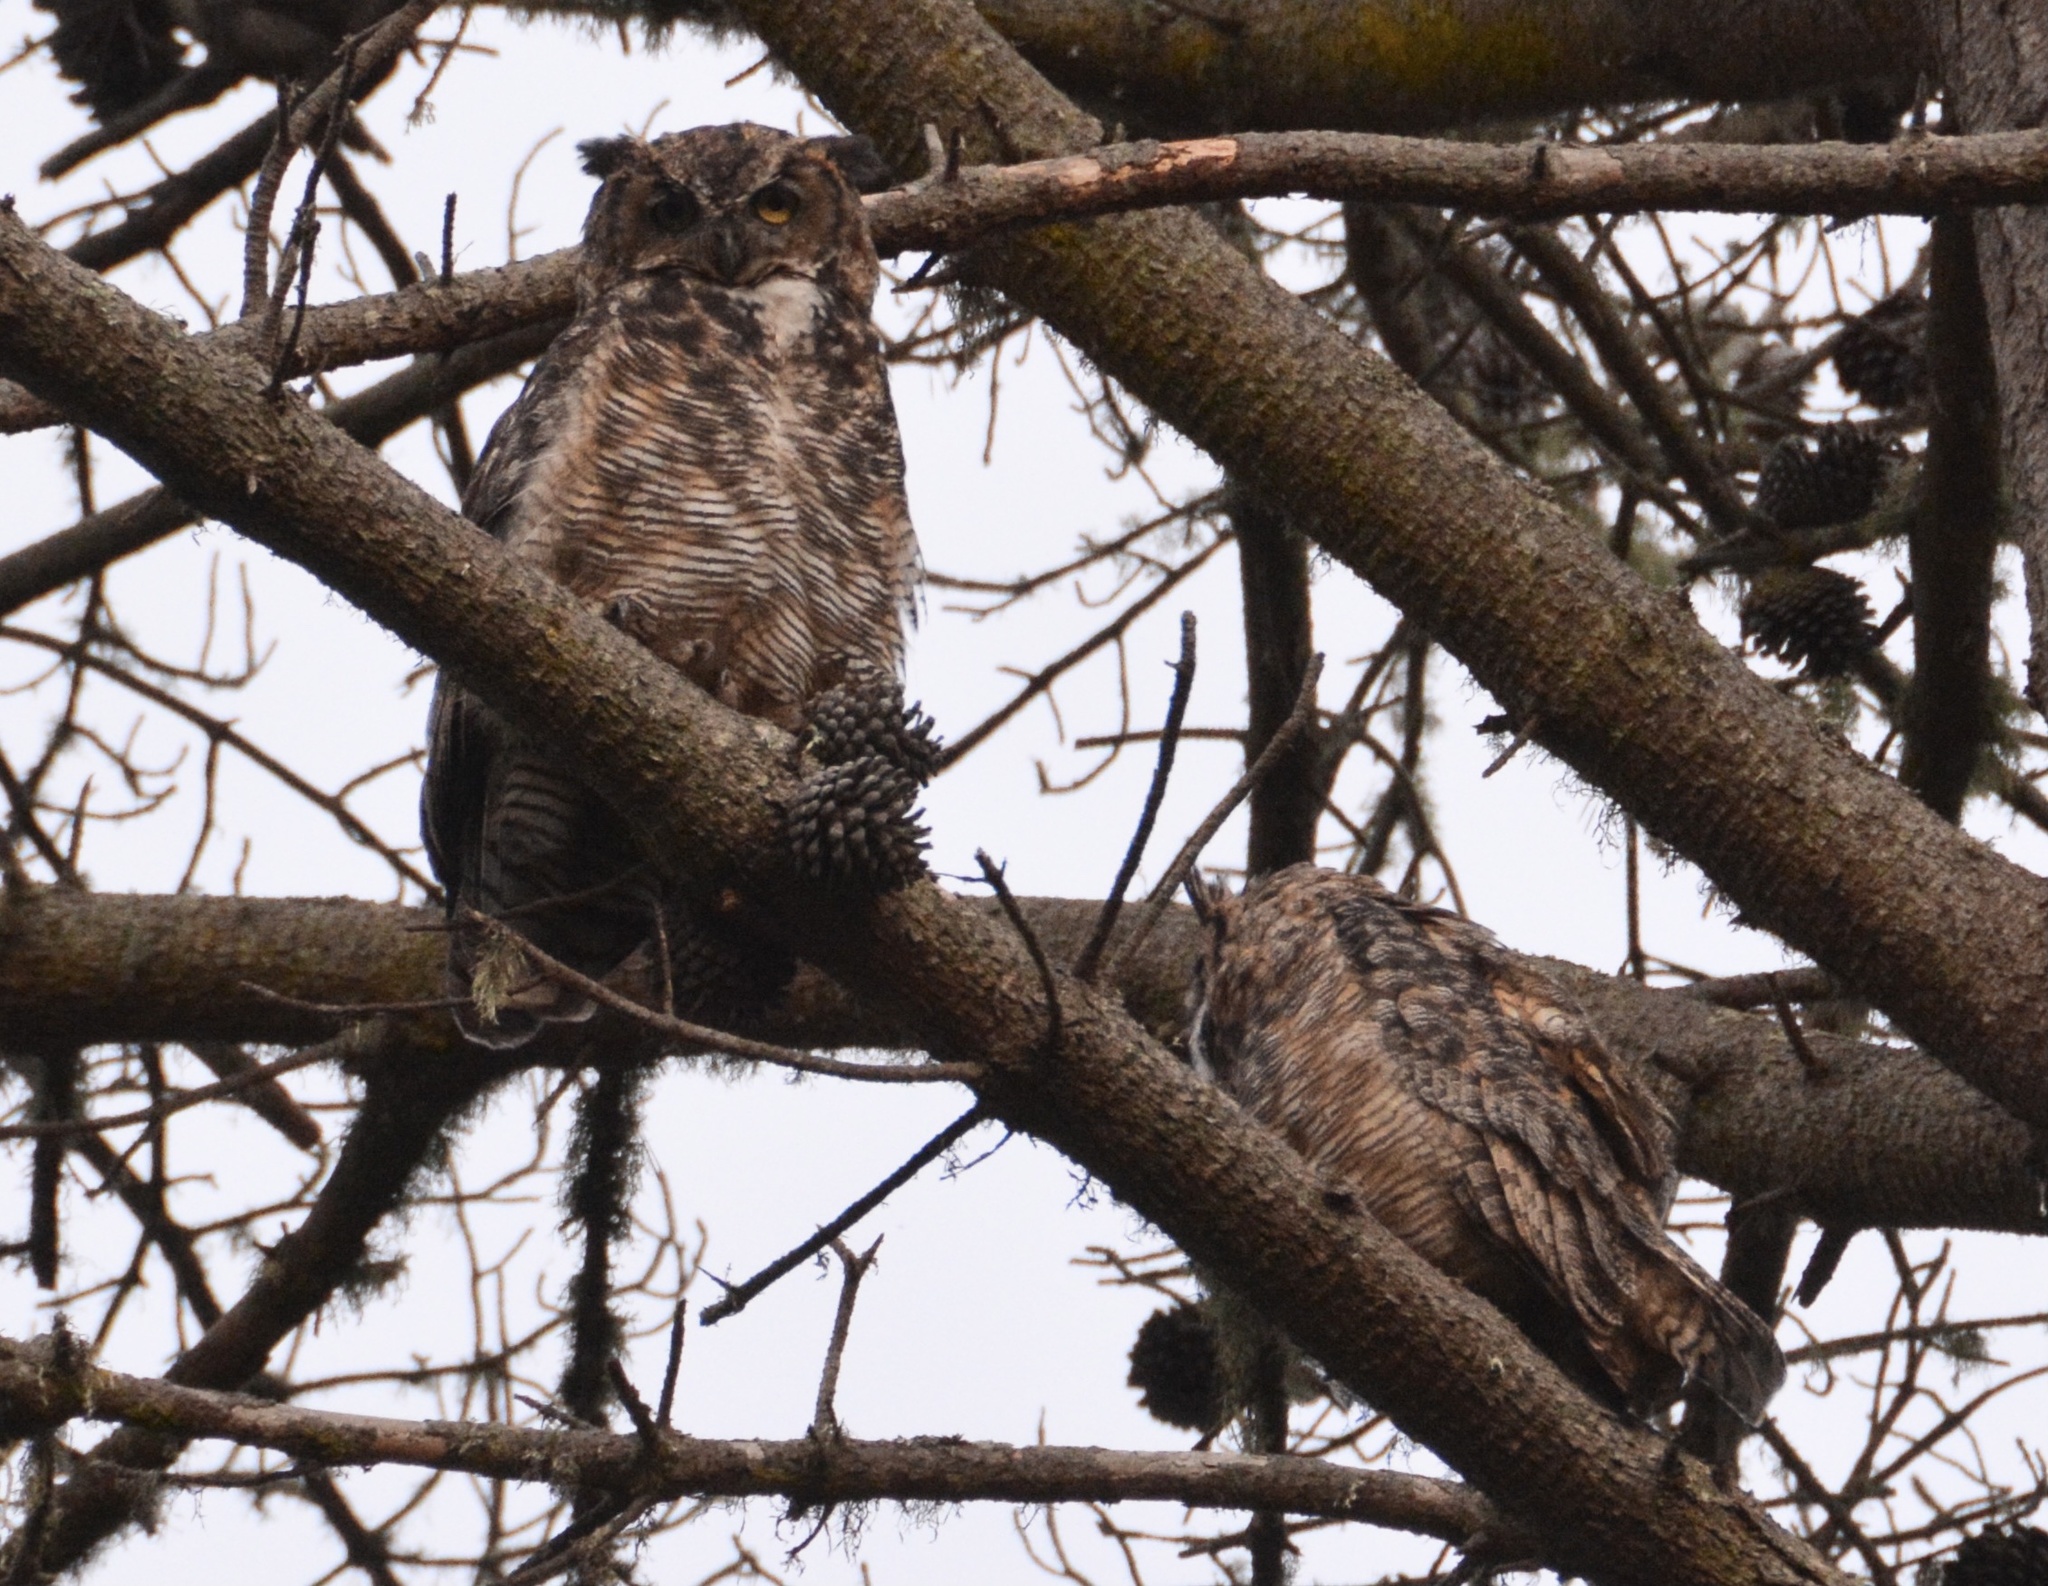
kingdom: Animalia
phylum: Chordata
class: Aves
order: Strigiformes
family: Strigidae
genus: Bubo
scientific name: Bubo virginianus
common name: Great horned owl
